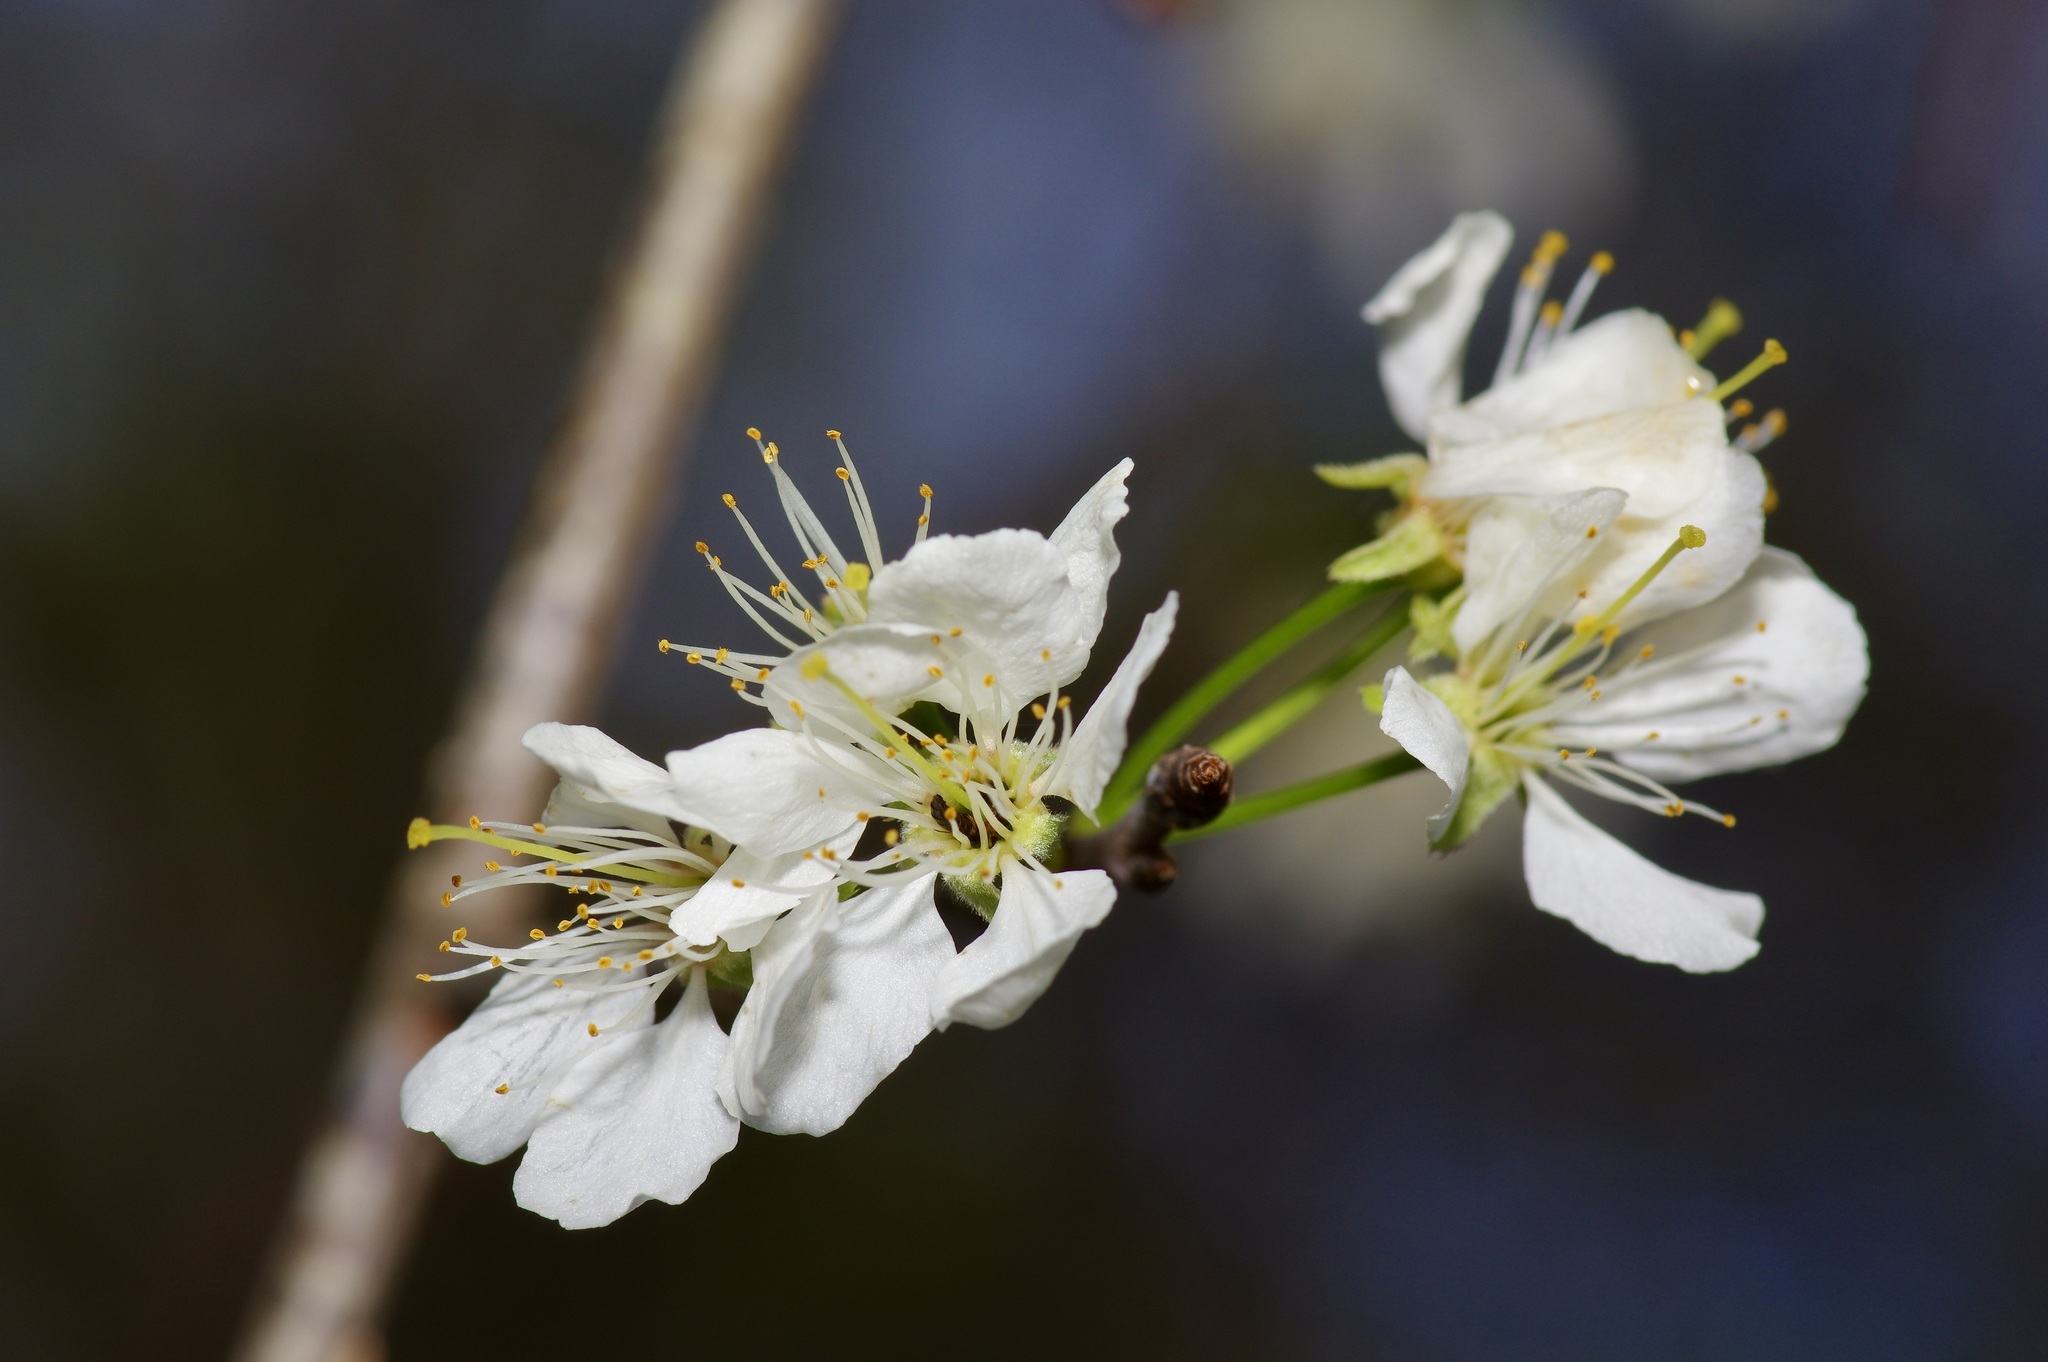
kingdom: Plantae
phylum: Tracheophyta
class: Magnoliopsida
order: Rosales
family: Rosaceae
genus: Prunus
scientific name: Prunus mexicana
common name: Mexican plum
